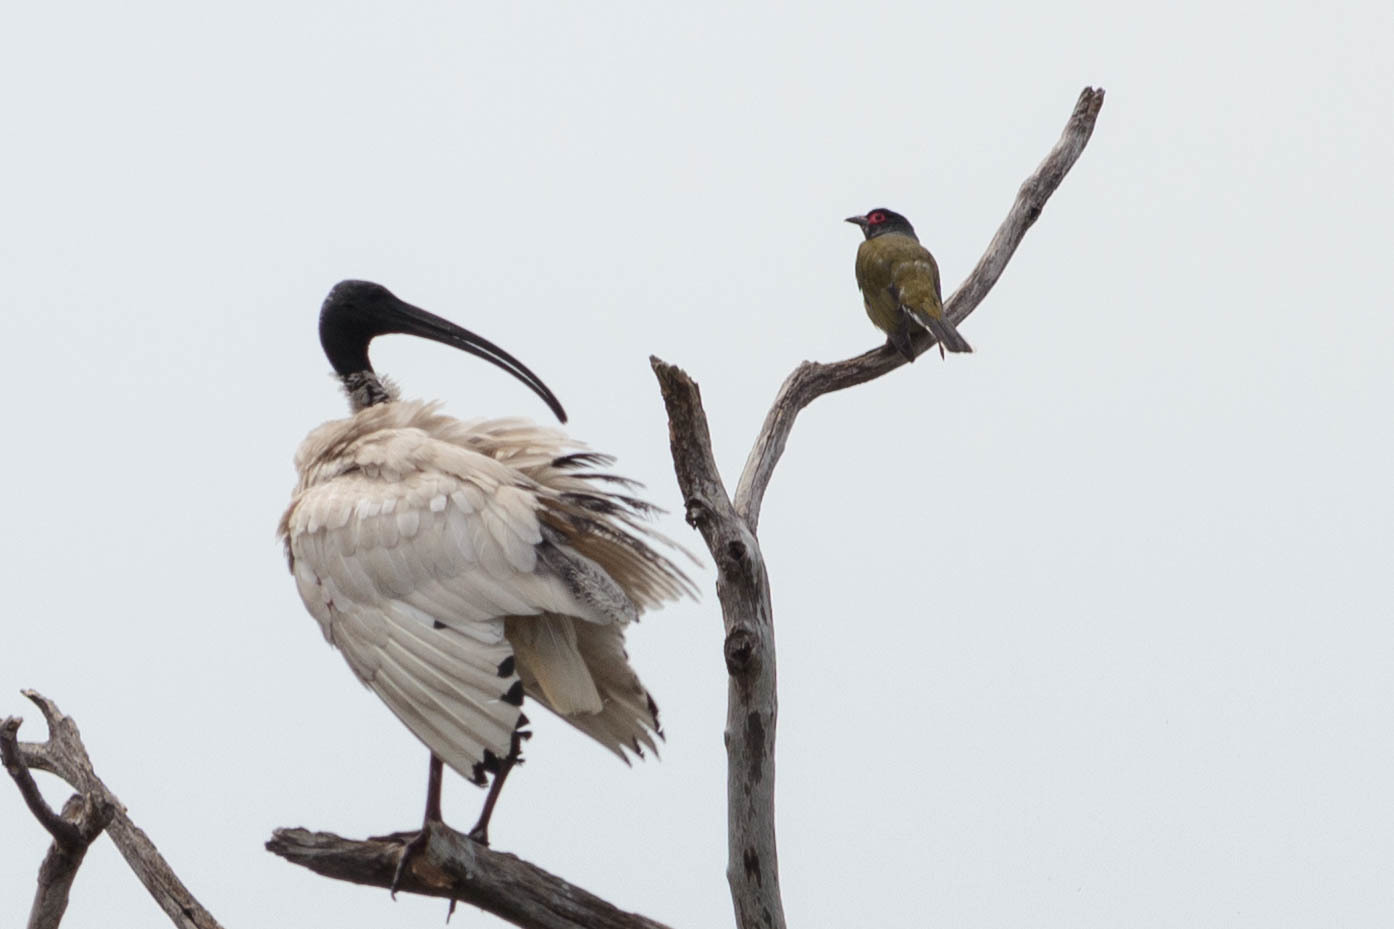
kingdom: Animalia
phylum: Chordata
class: Aves
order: Passeriformes
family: Oriolidae
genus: Sphecotheres
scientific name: Sphecotheres vieilloti
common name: Australasian figbird
